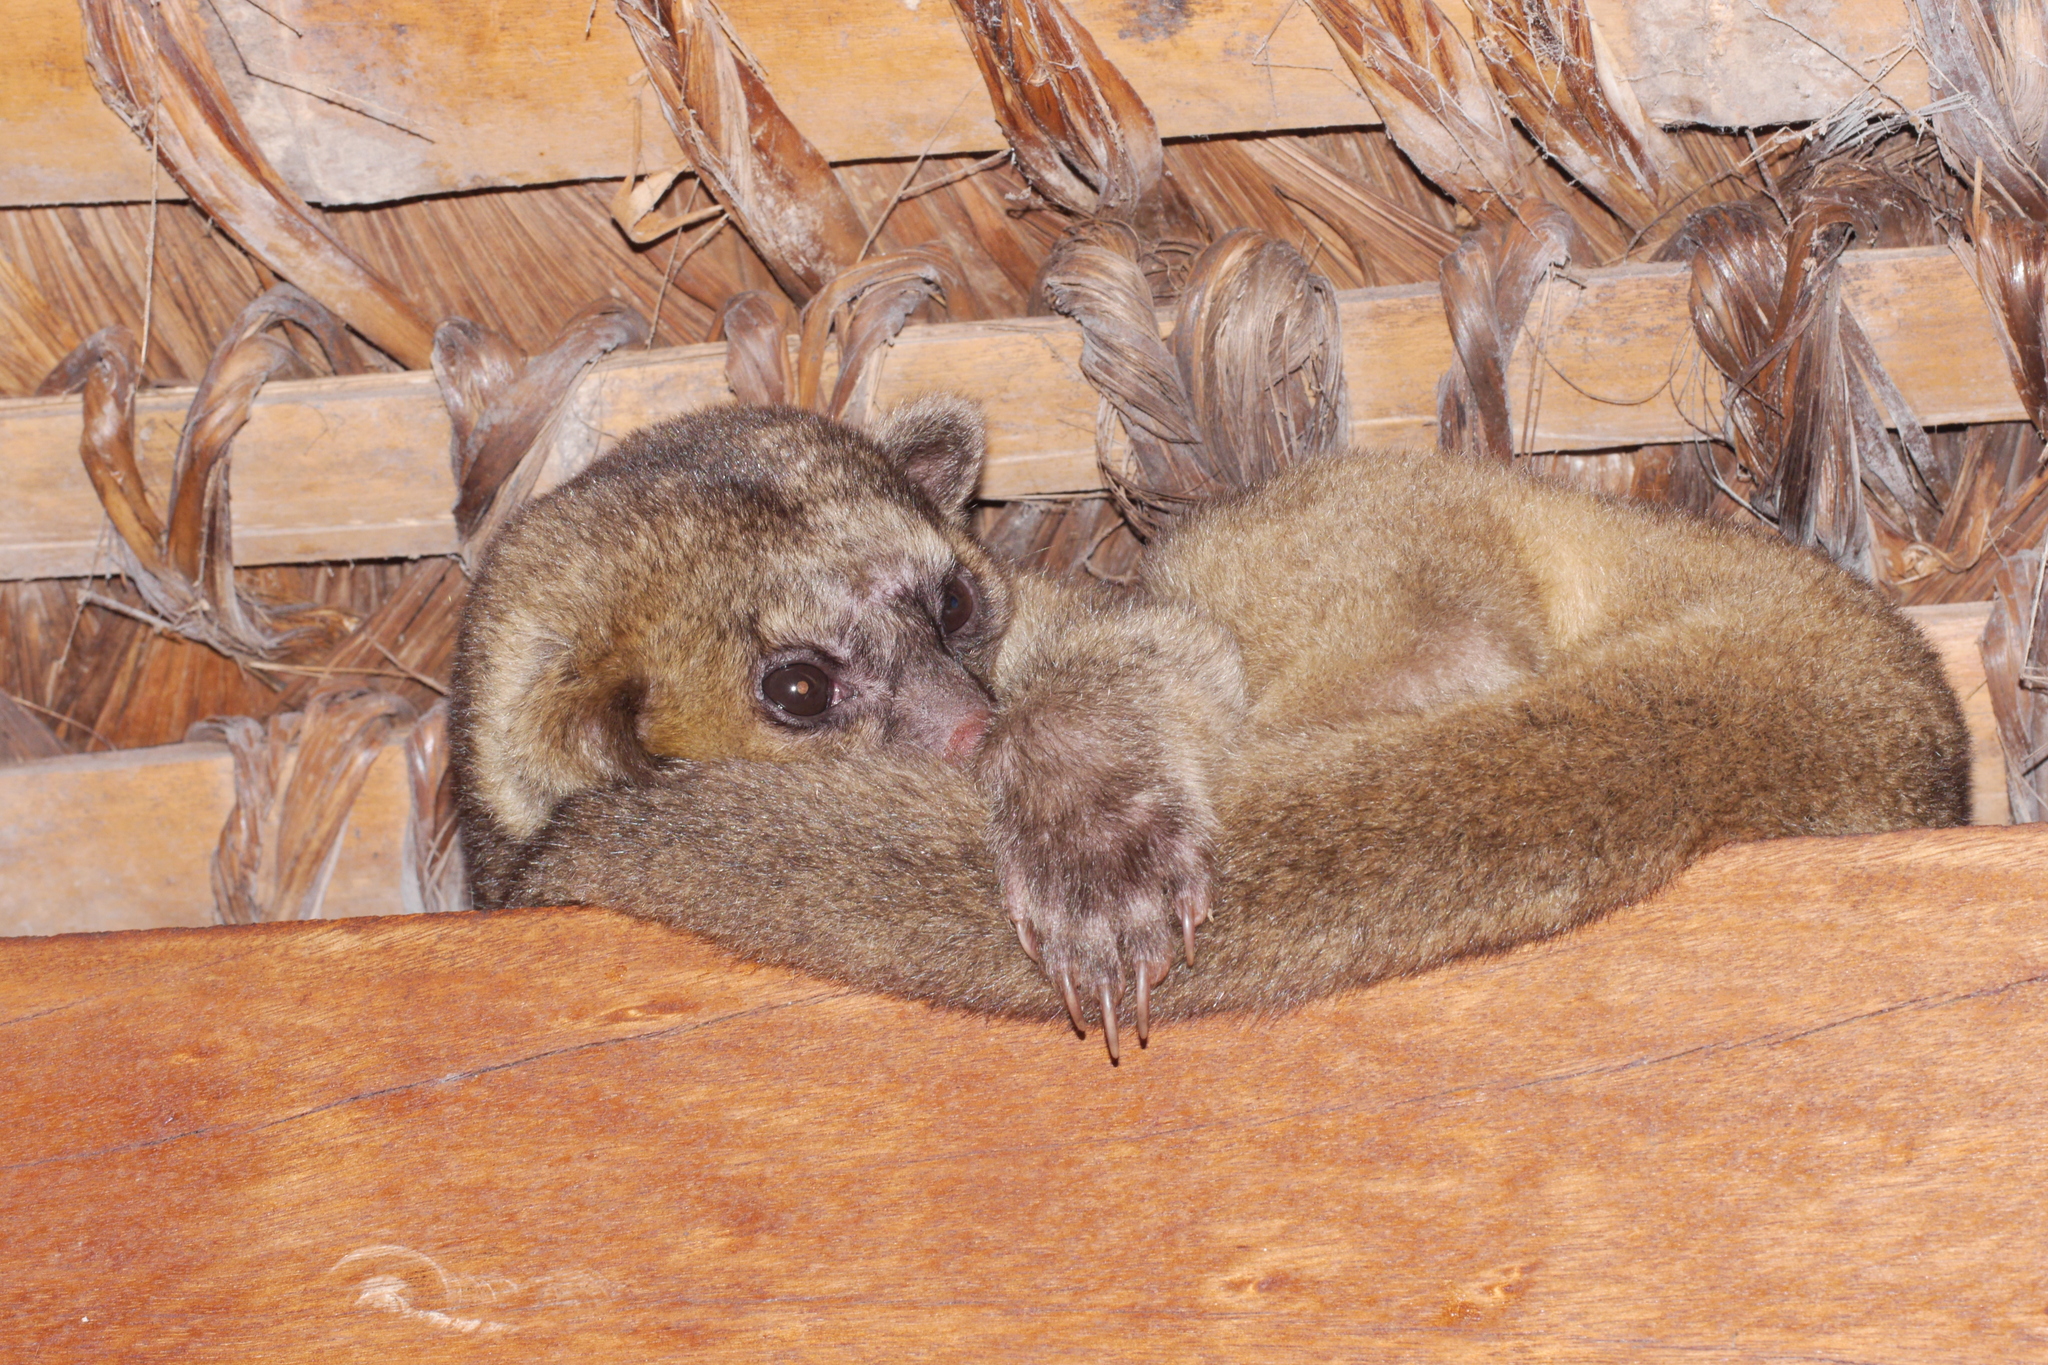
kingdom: Animalia
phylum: Chordata
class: Mammalia
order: Carnivora
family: Procyonidae
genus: Potos
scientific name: Potos flavus
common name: Kinkajou
